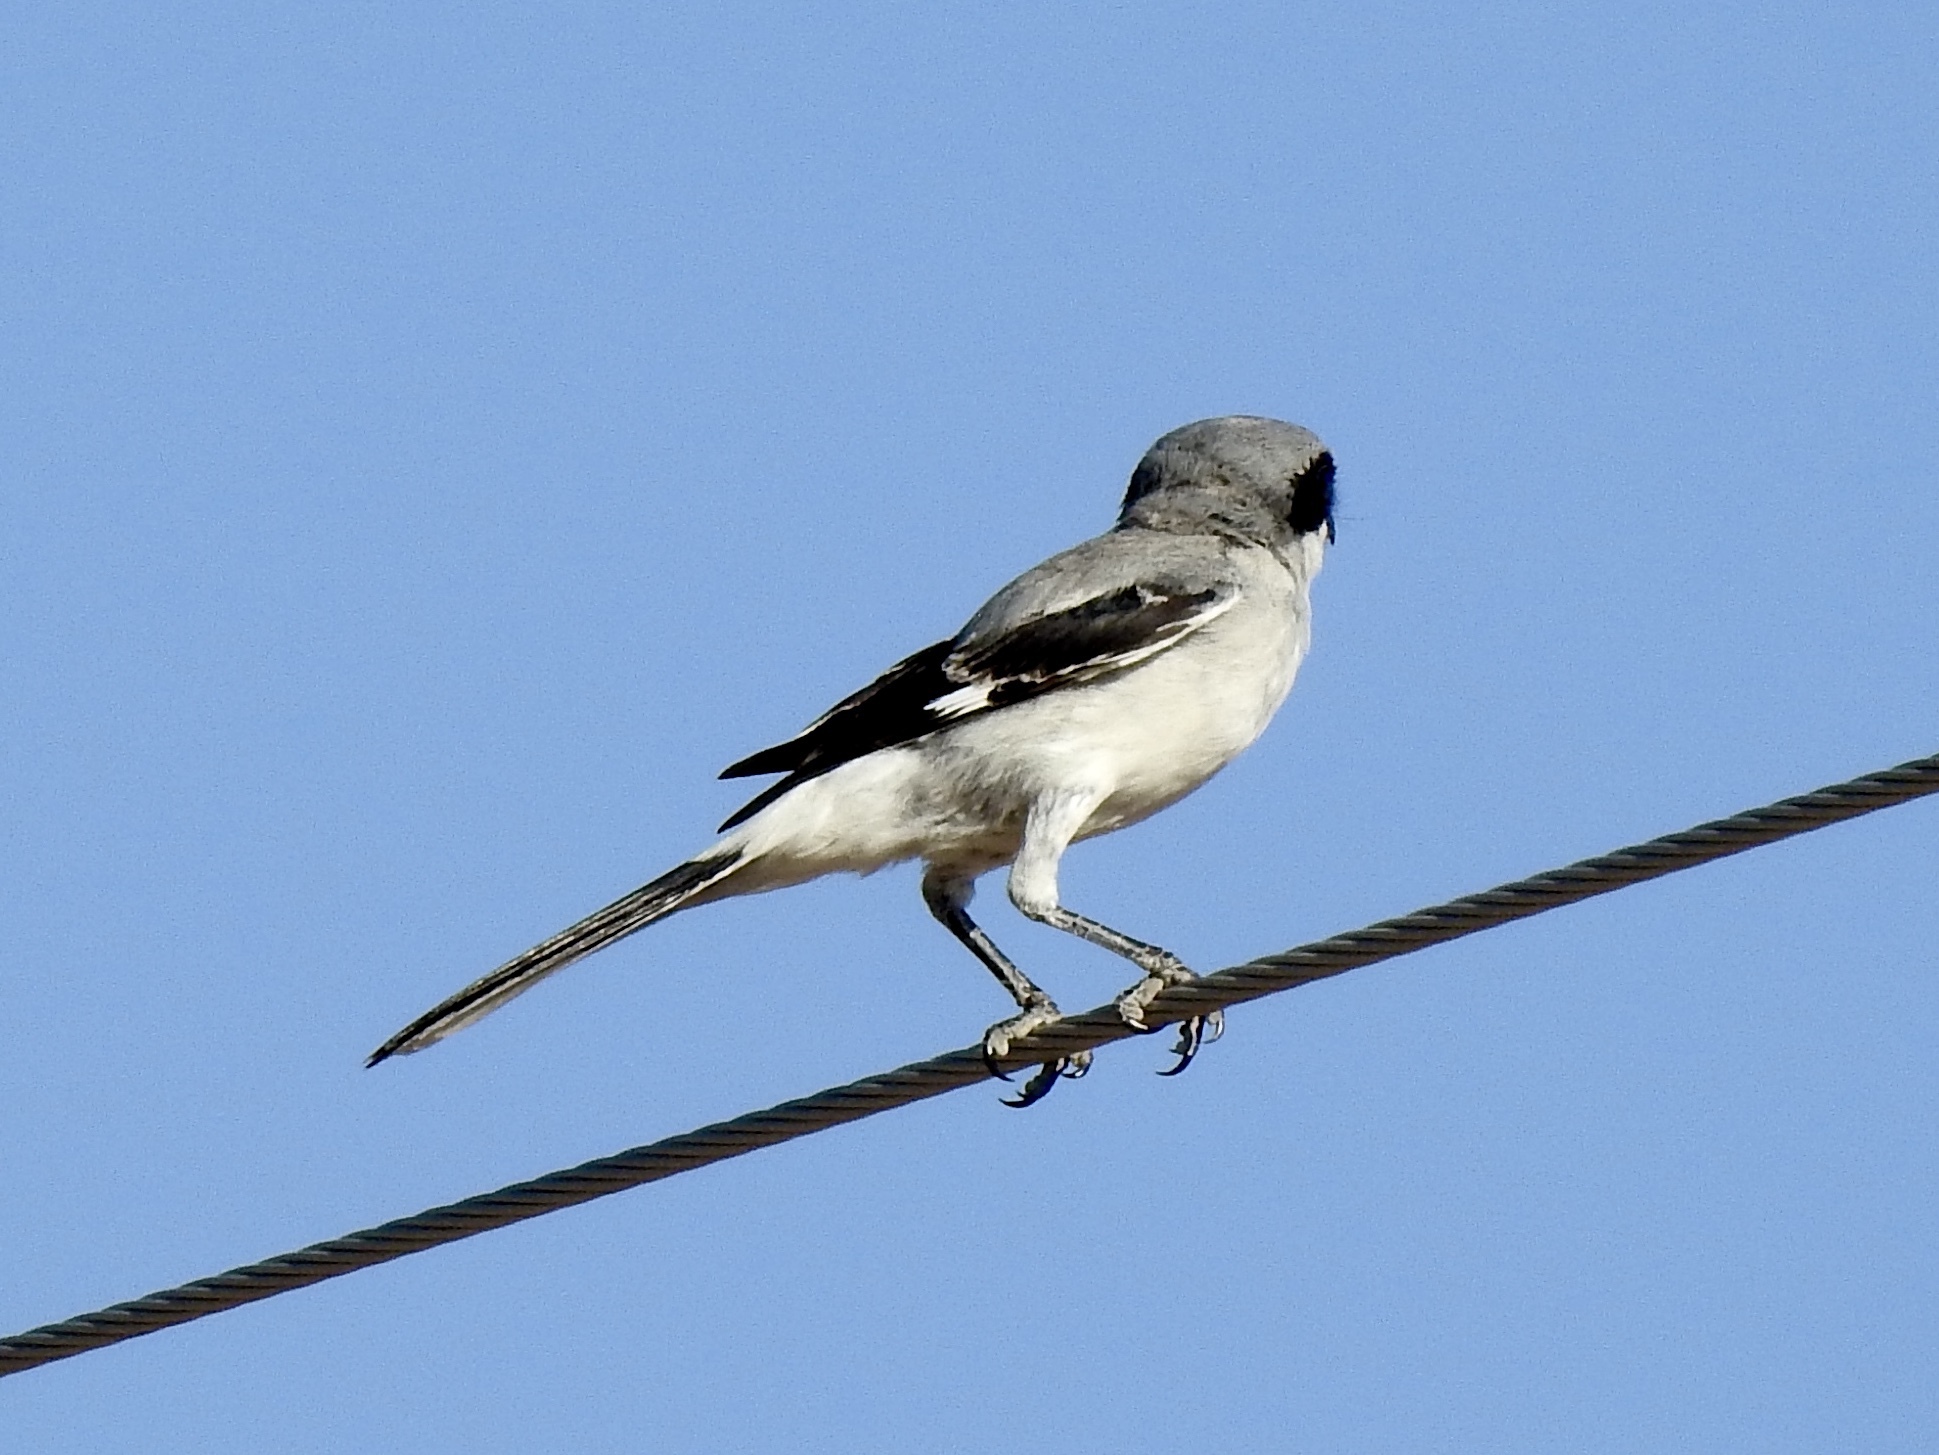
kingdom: Animalia
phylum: Chordata
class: Aves
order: Passeriformes
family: Laniidae
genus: Lanius
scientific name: Lanius ludovicianus
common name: Loggerhead shrike
